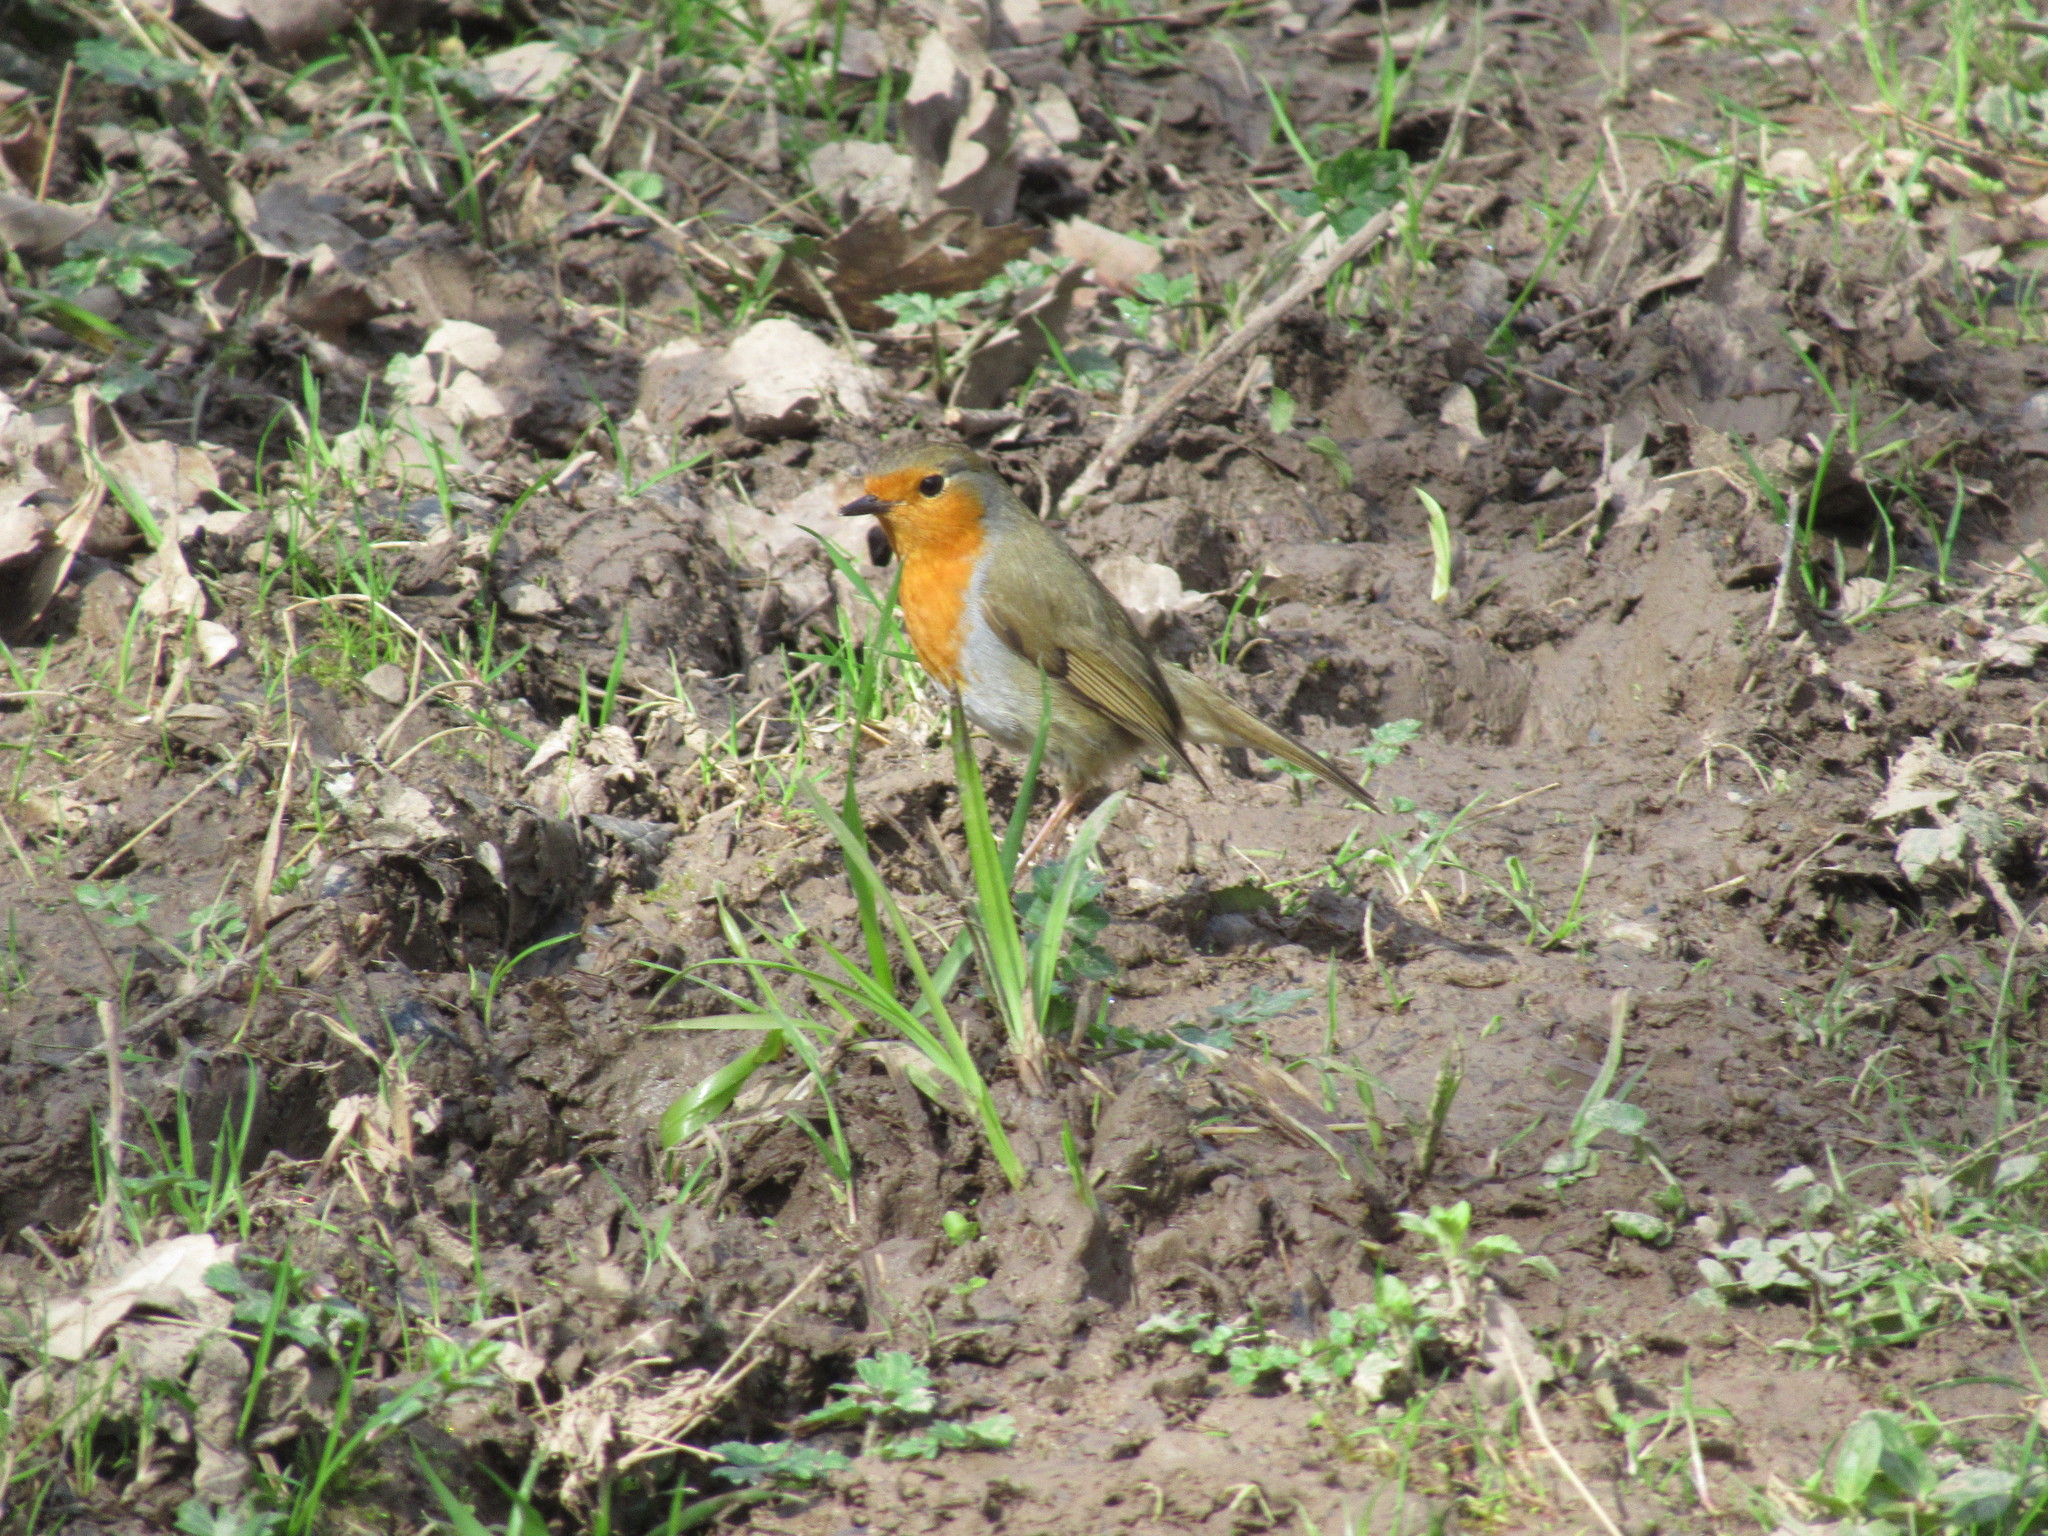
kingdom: Animalia
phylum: Chordata
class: Aves
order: Passeriformes
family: Muscicapidae
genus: Erithacus
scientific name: Erithacus rubecula
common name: European robin
